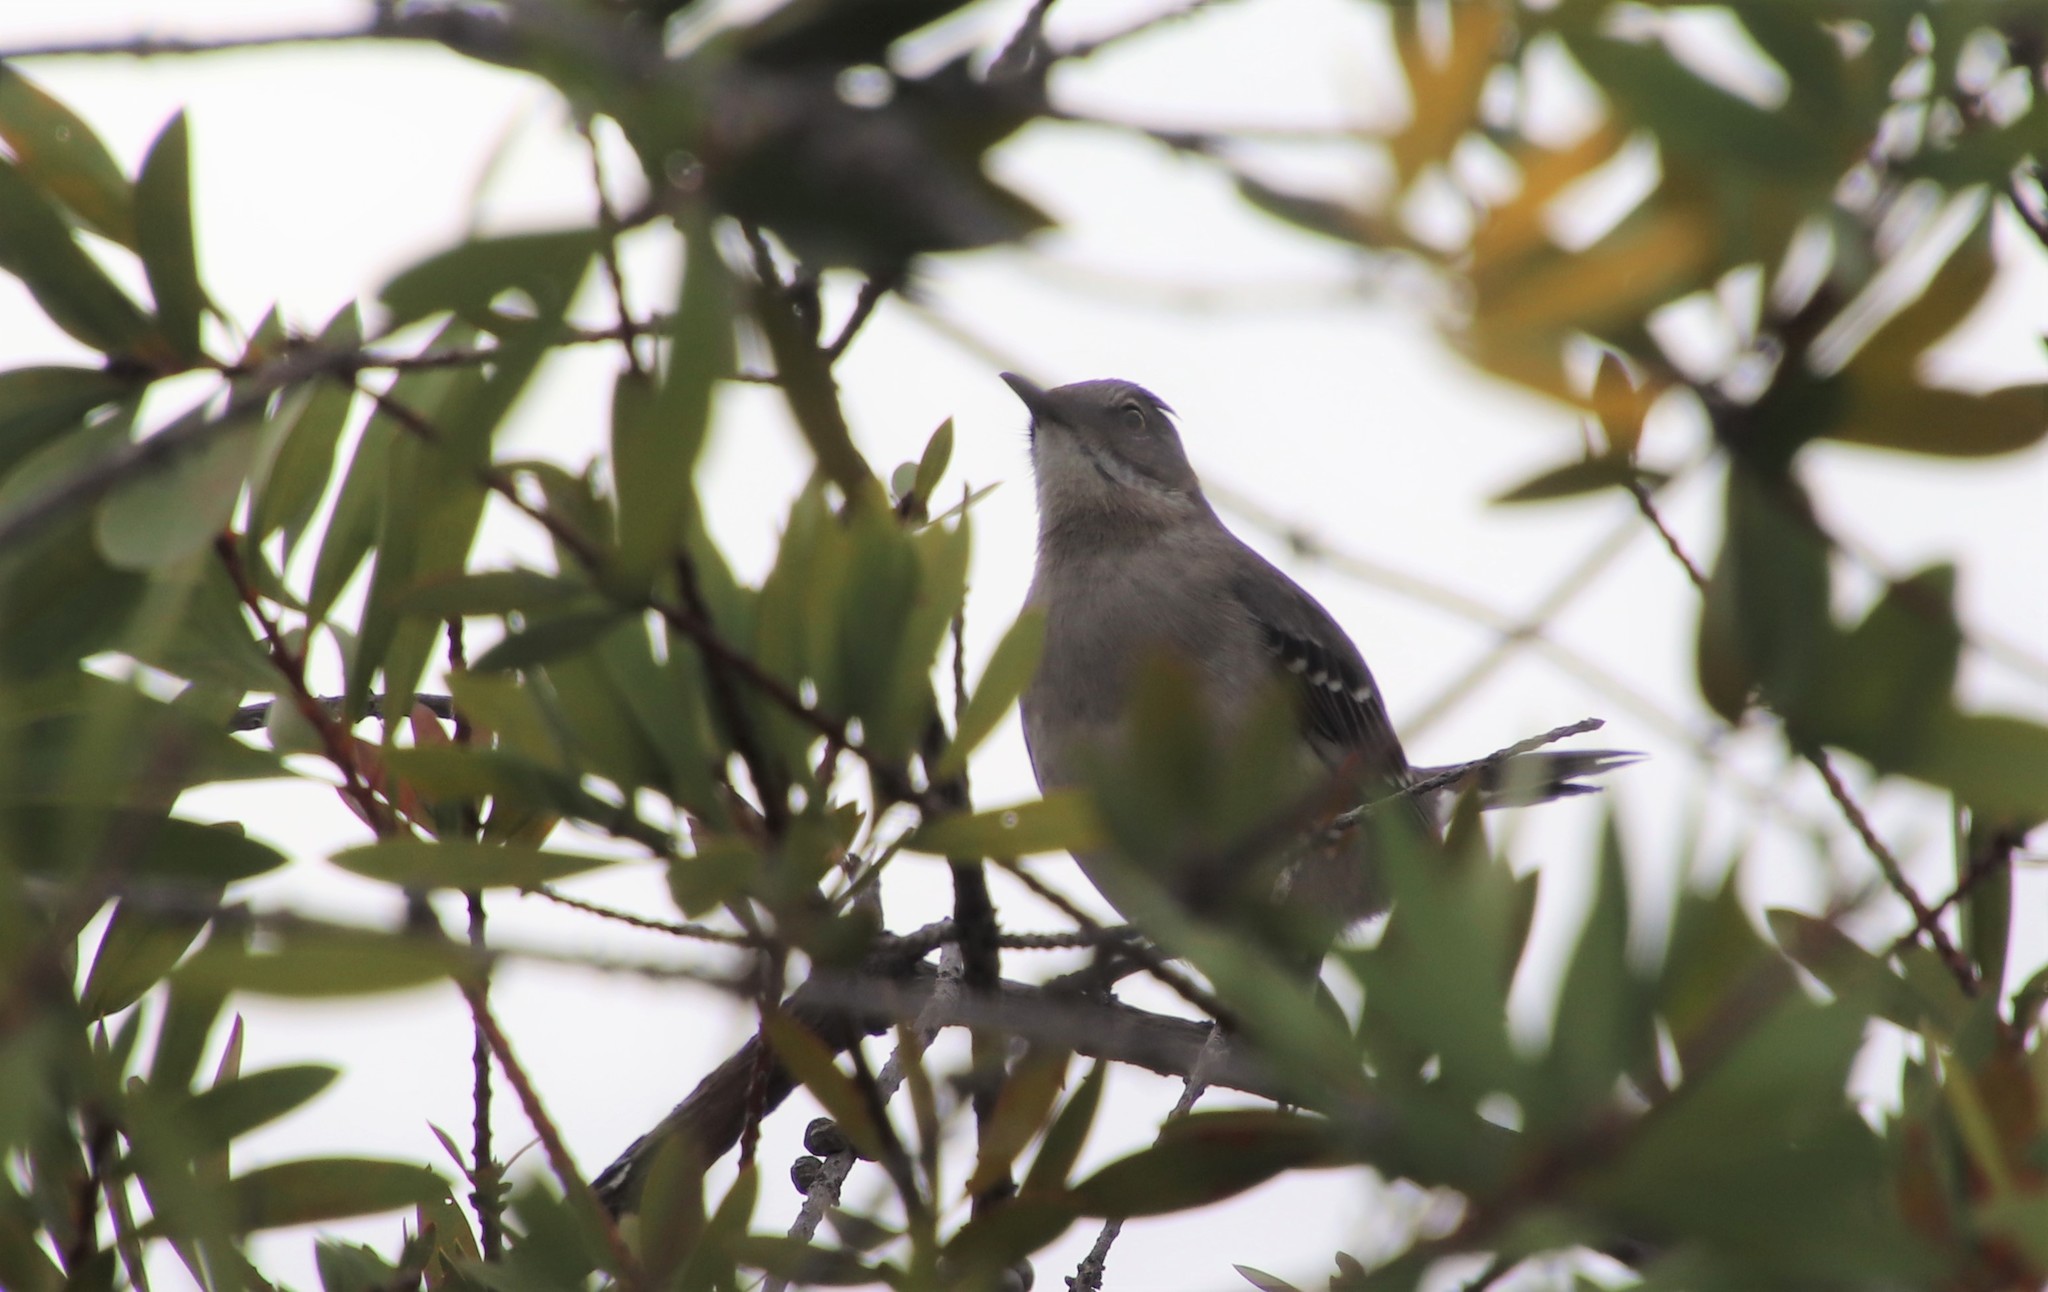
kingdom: Animalia
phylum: Chordata
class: Aves
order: Passeriformes
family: Mimidae
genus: Mimus
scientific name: Mimus polyglottos
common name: Northern mockingbird
